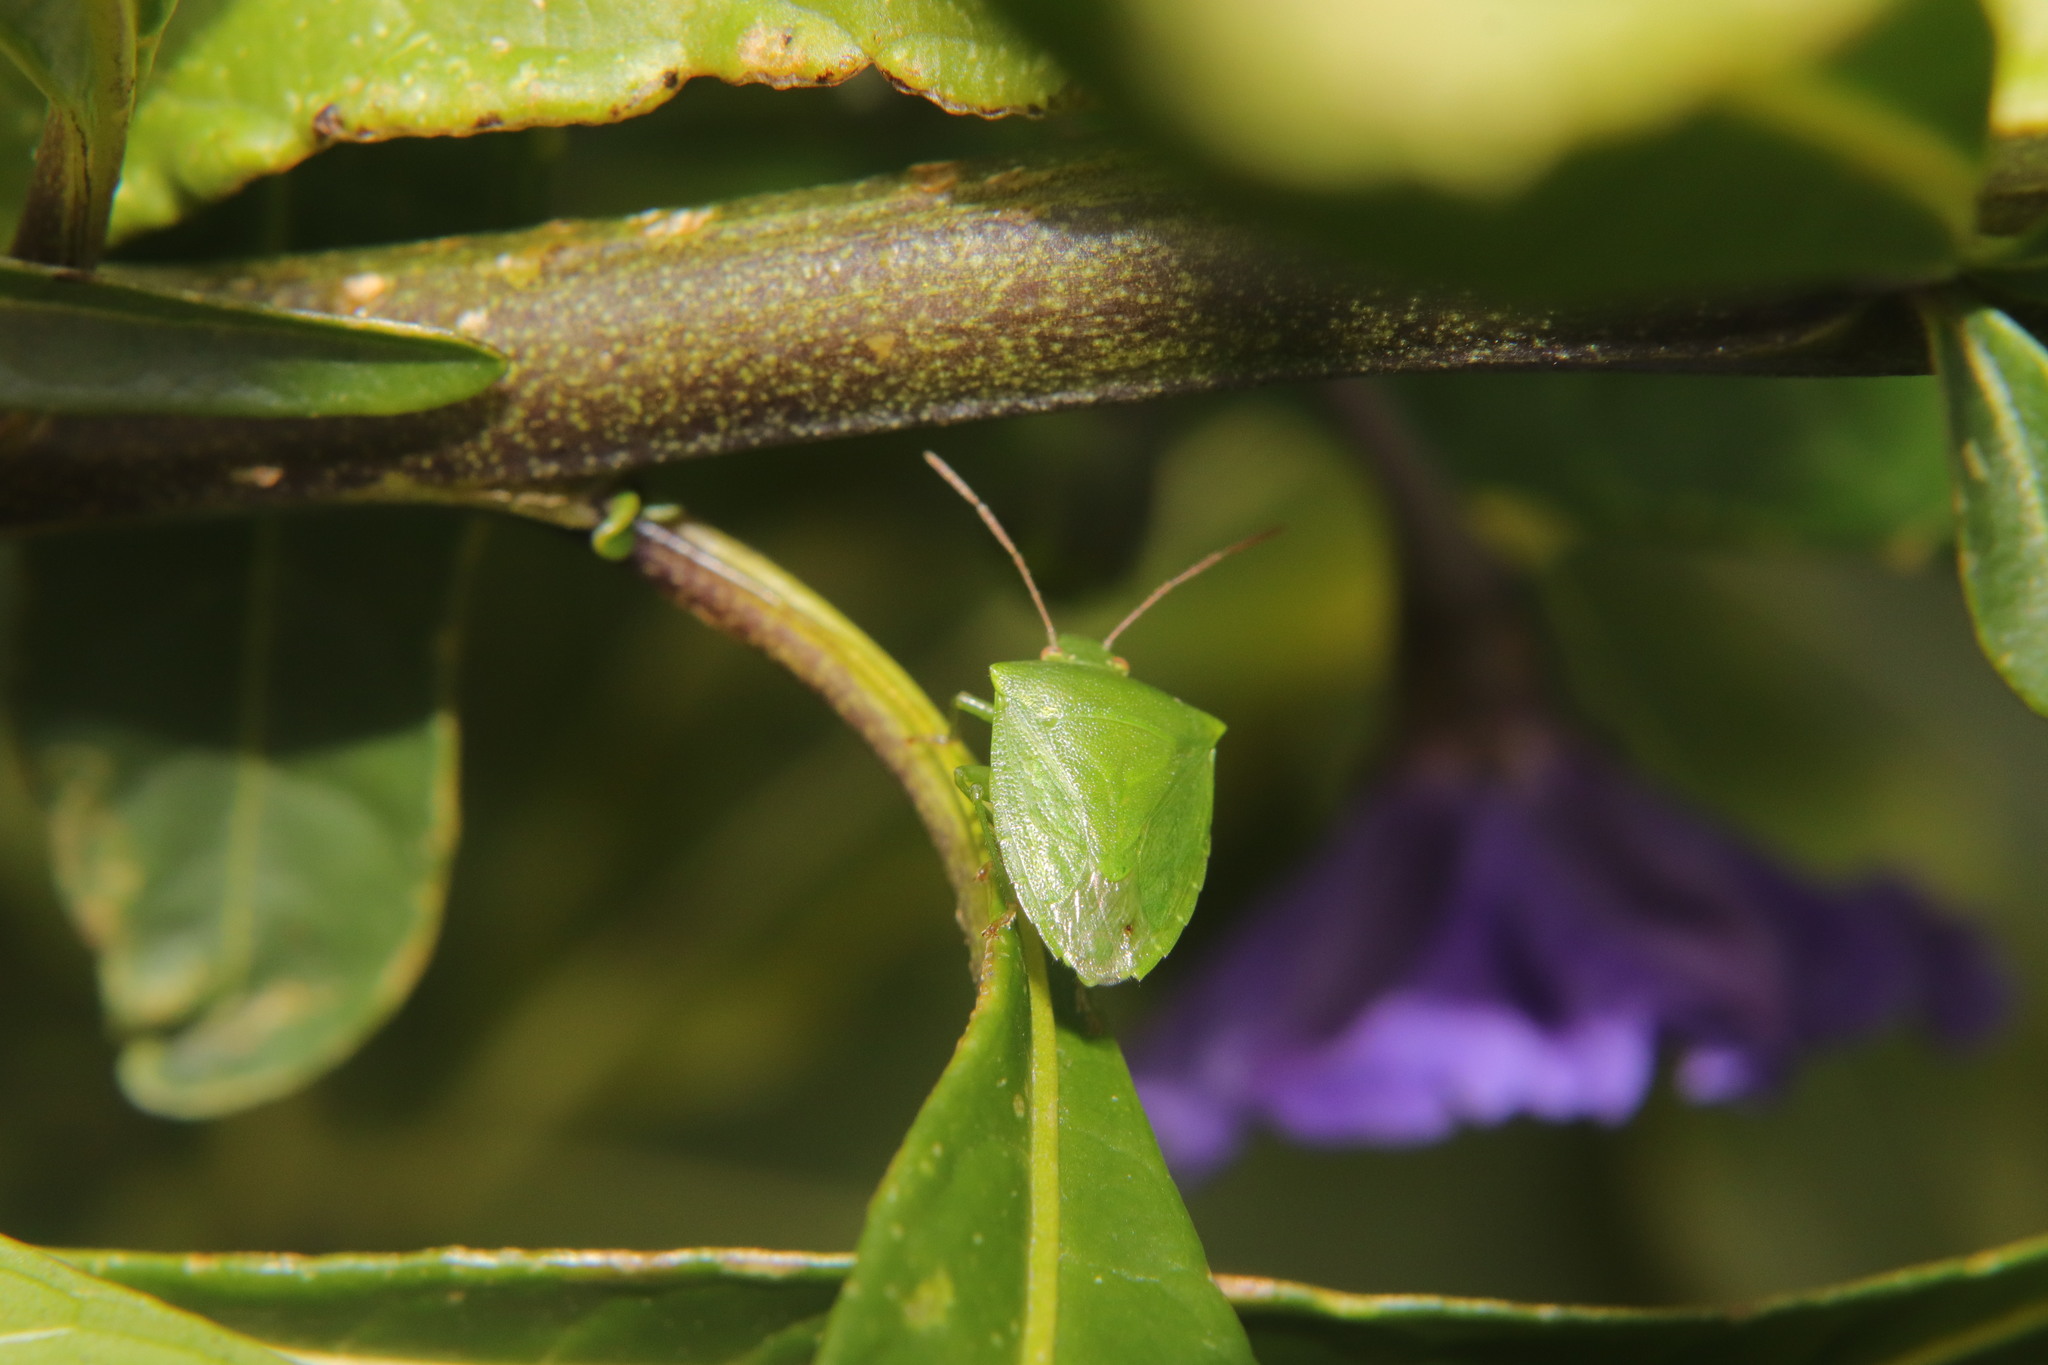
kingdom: Animalia
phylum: Arthropoda
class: Insecta
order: Hemiptera
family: Pentatomidae
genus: Cuspicona
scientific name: Cuspicona simplex
